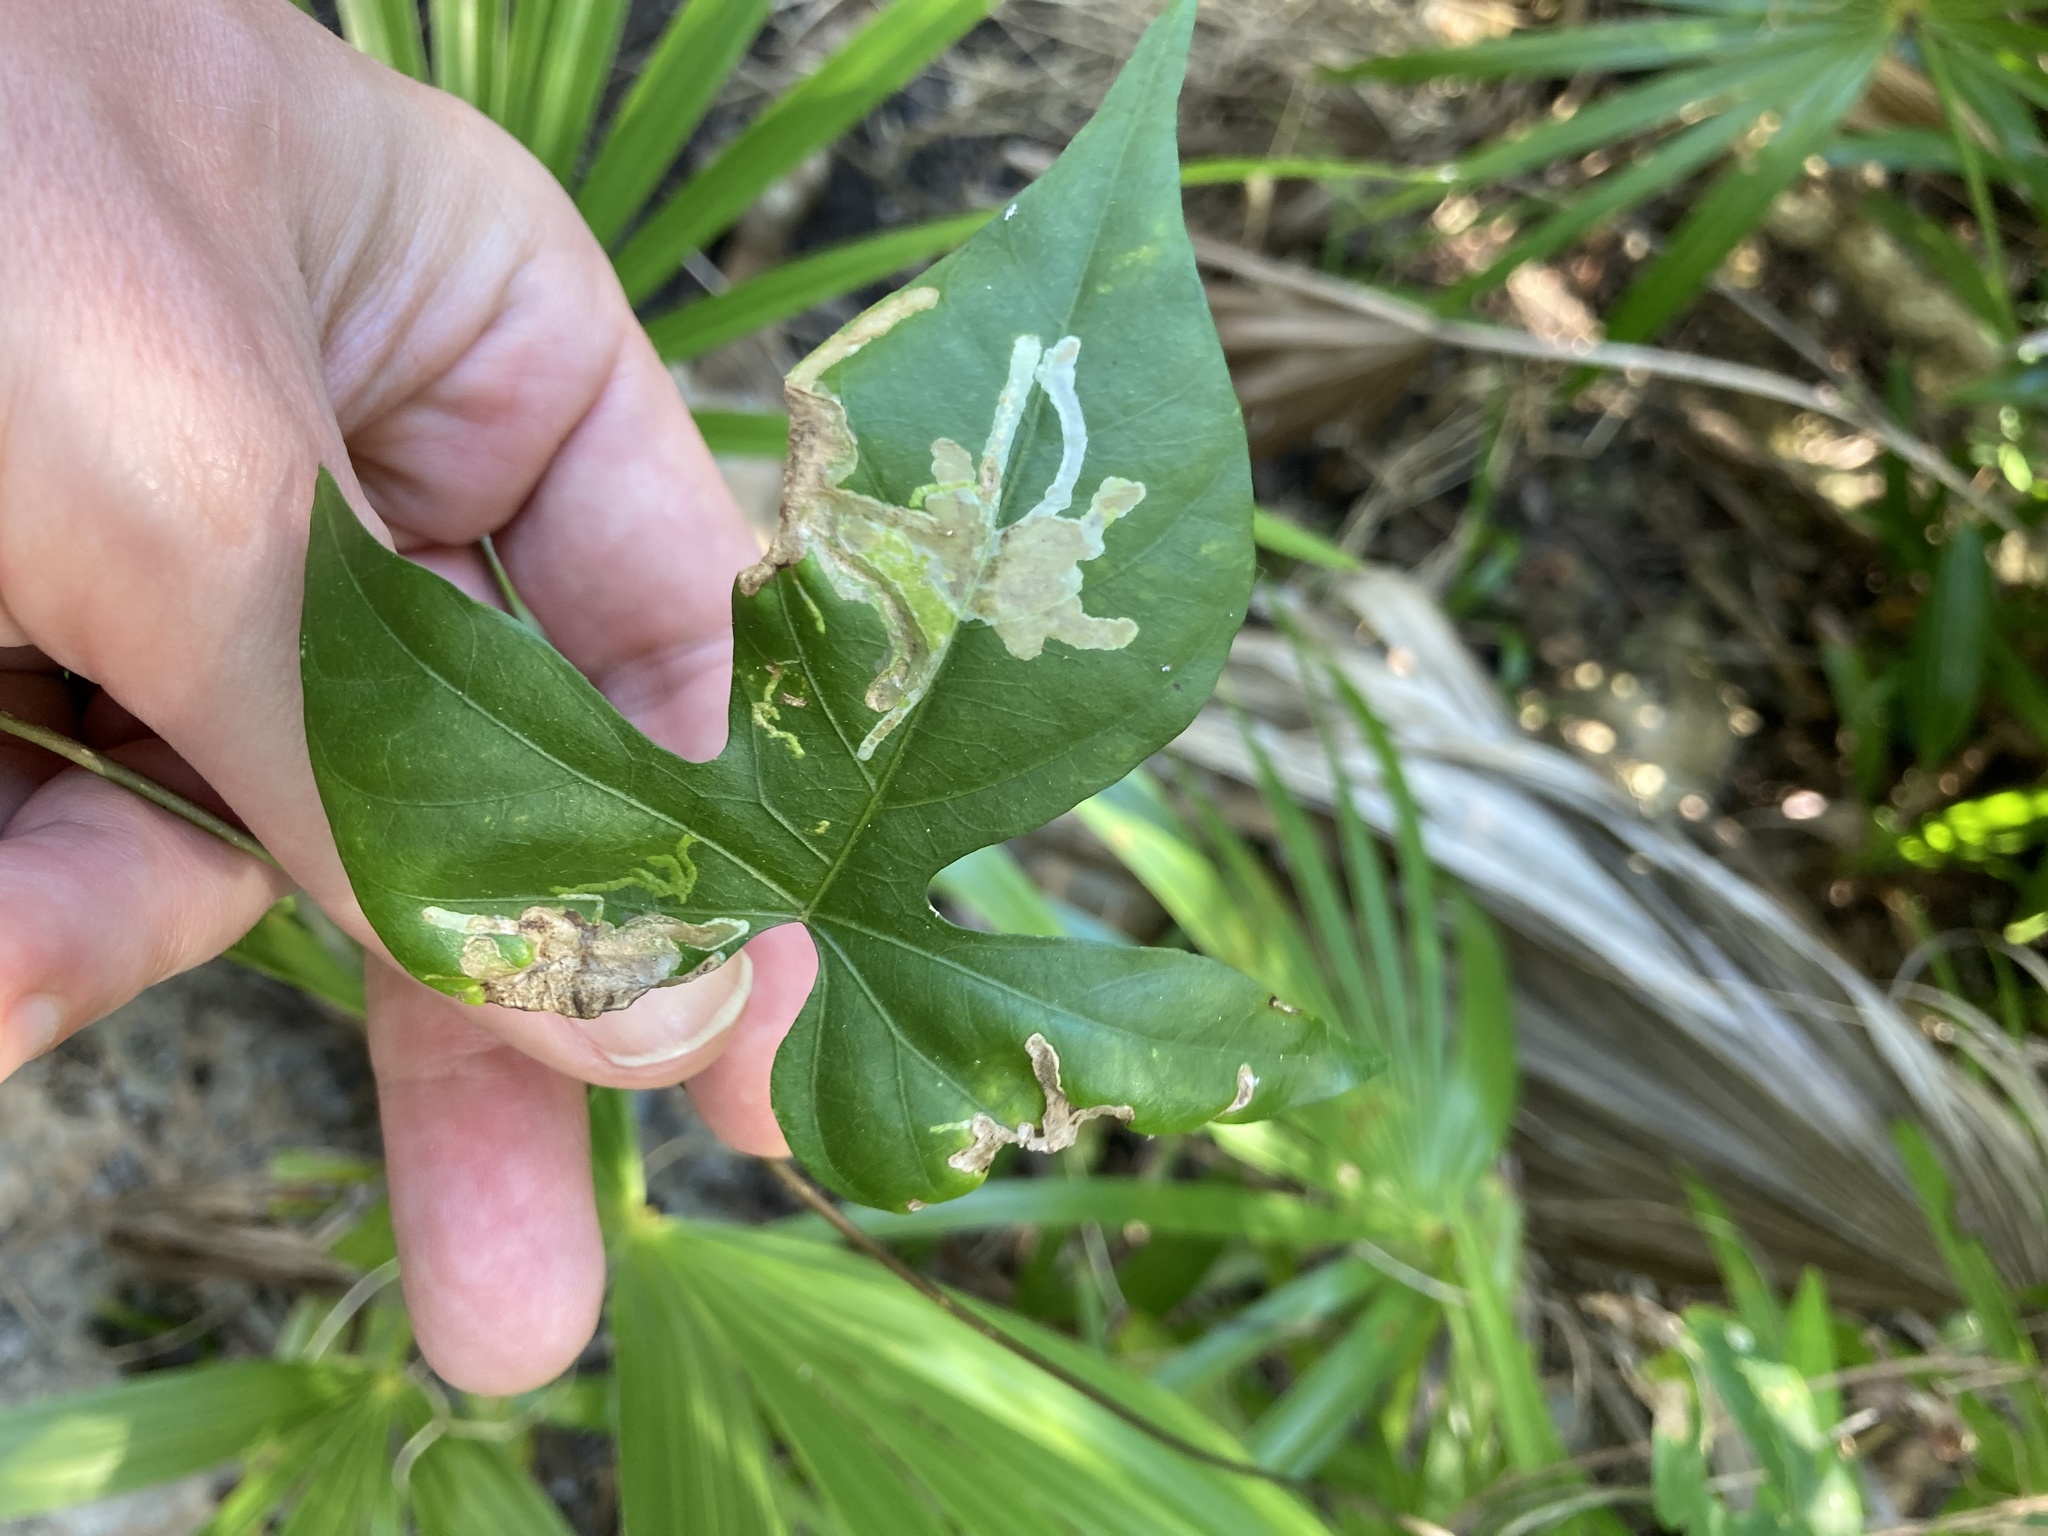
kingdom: Plantae
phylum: Tracheophyta
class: Magnoliopsida
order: Solanales
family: Convolvulaceae
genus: Ipomoea
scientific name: Ipomoea indica
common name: Blue dawnflower
